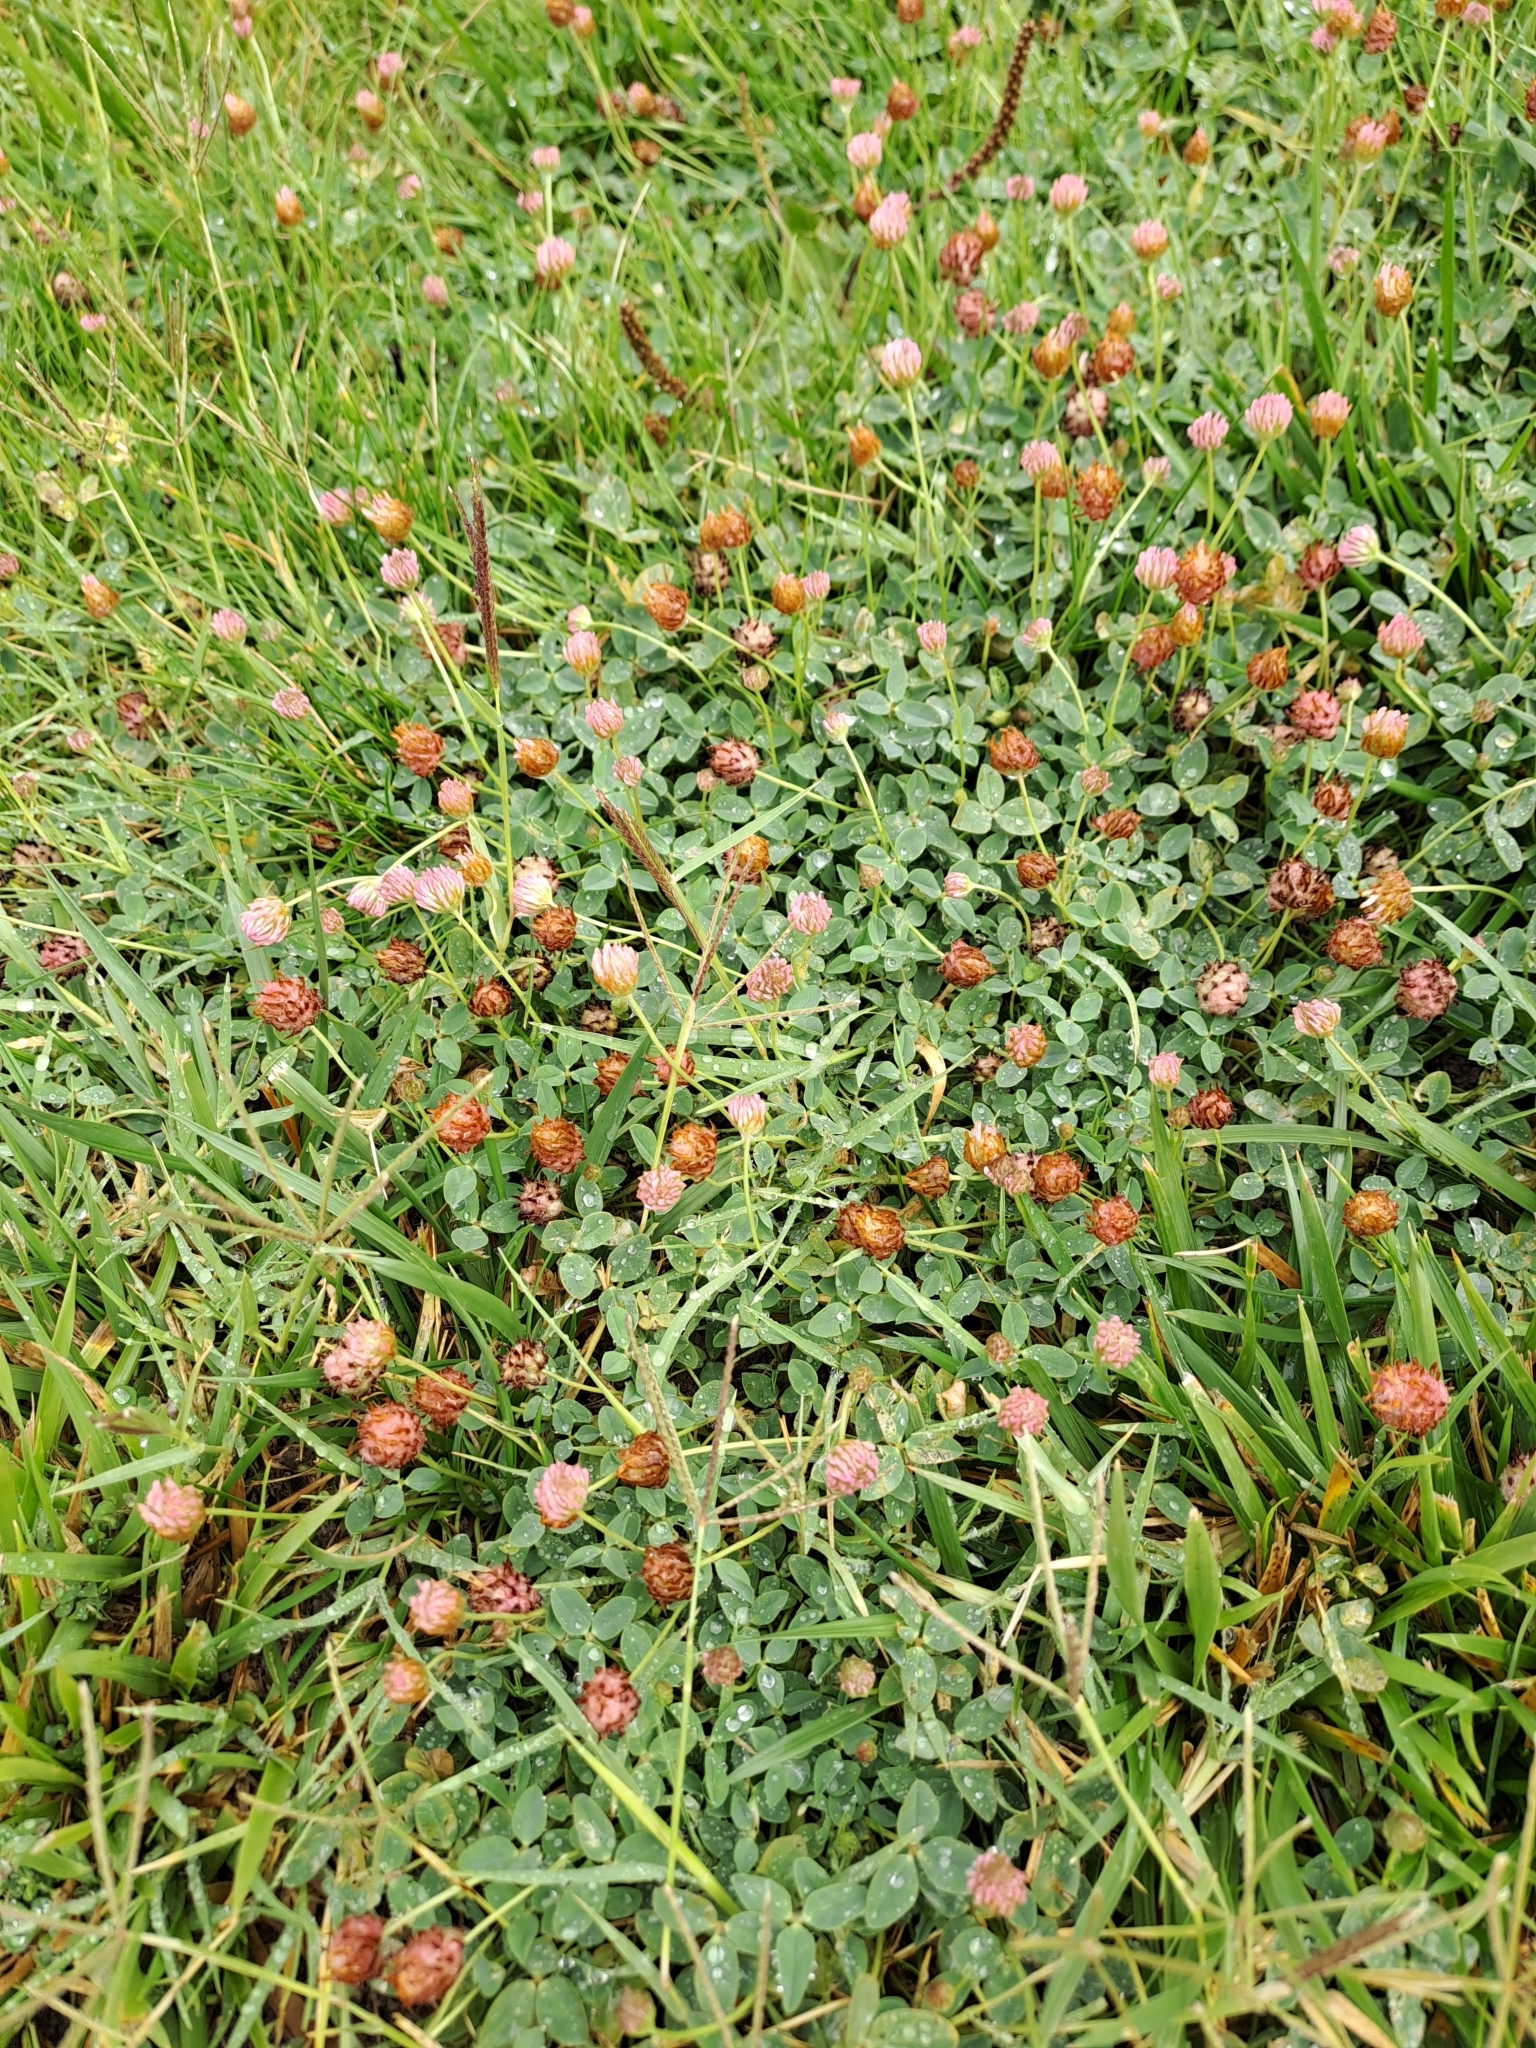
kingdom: Plantae
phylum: Tracheophyta
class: Magnoliopsida
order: Fabales
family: Fabaceae
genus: Trifolium
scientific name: Trifolium fragiferum
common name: Strawberry clover
